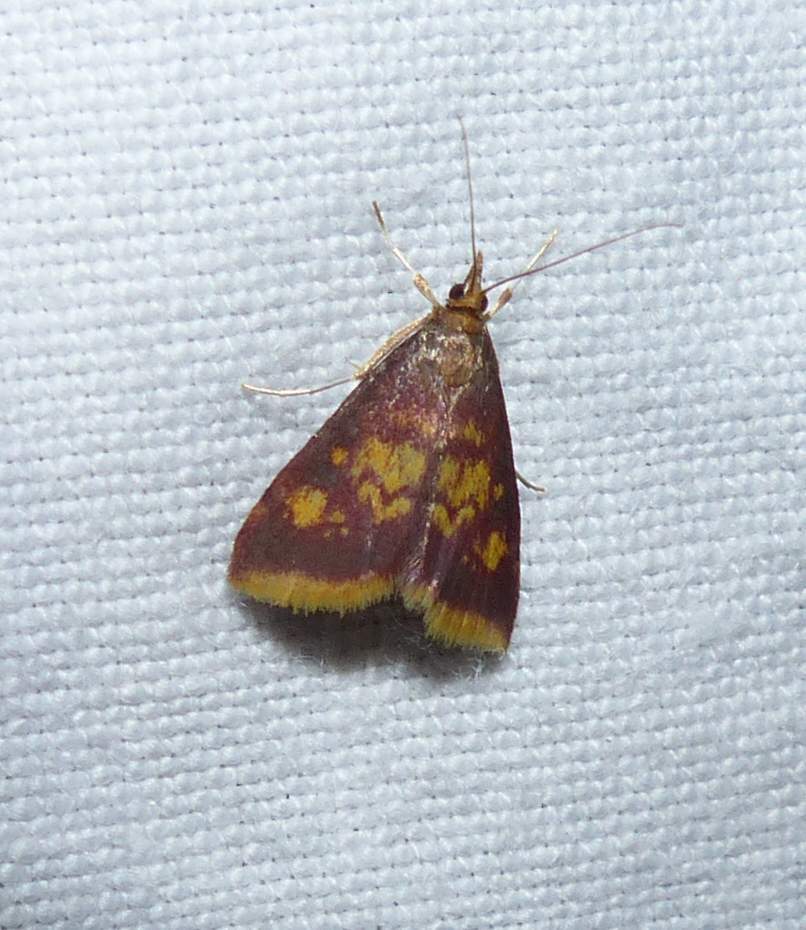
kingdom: Animalia
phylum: Arthropoda
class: Insecta
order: Lepidoptera
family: Crambidae
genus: Pyrausta
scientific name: Pyrausta acrionalis
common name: Mint-loving pyrausta moth
